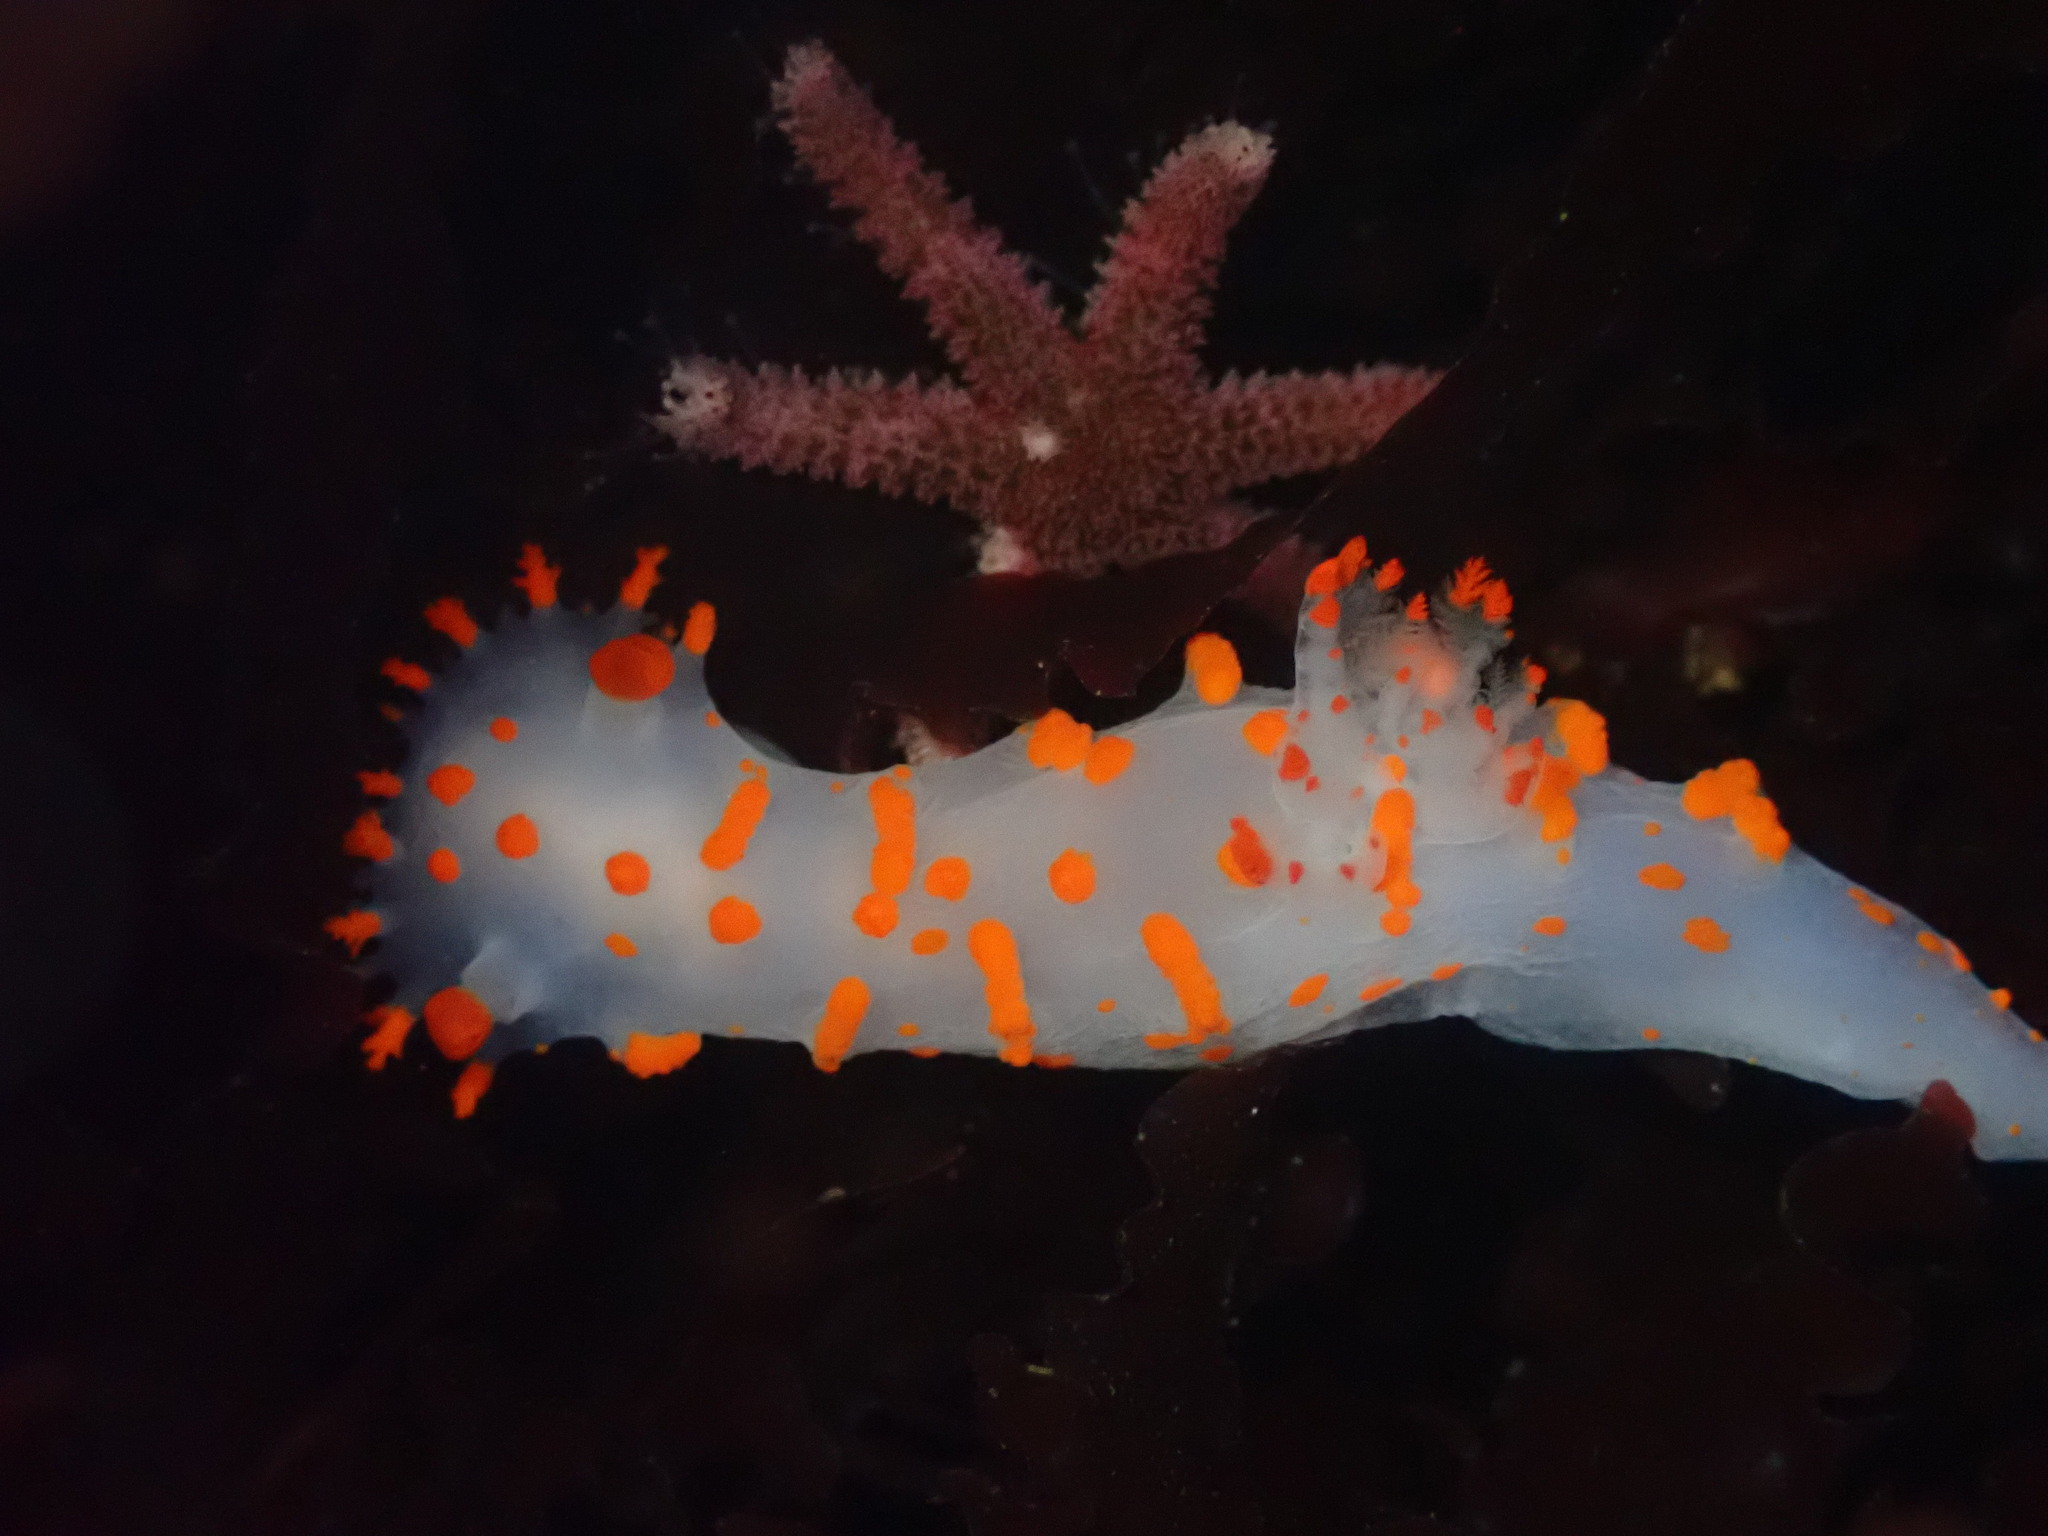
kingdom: Animalia
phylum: Mollusca
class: Gastropoda
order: Nudibranchia
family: Polyceridae
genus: Triopha
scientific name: Triopha catalinae
